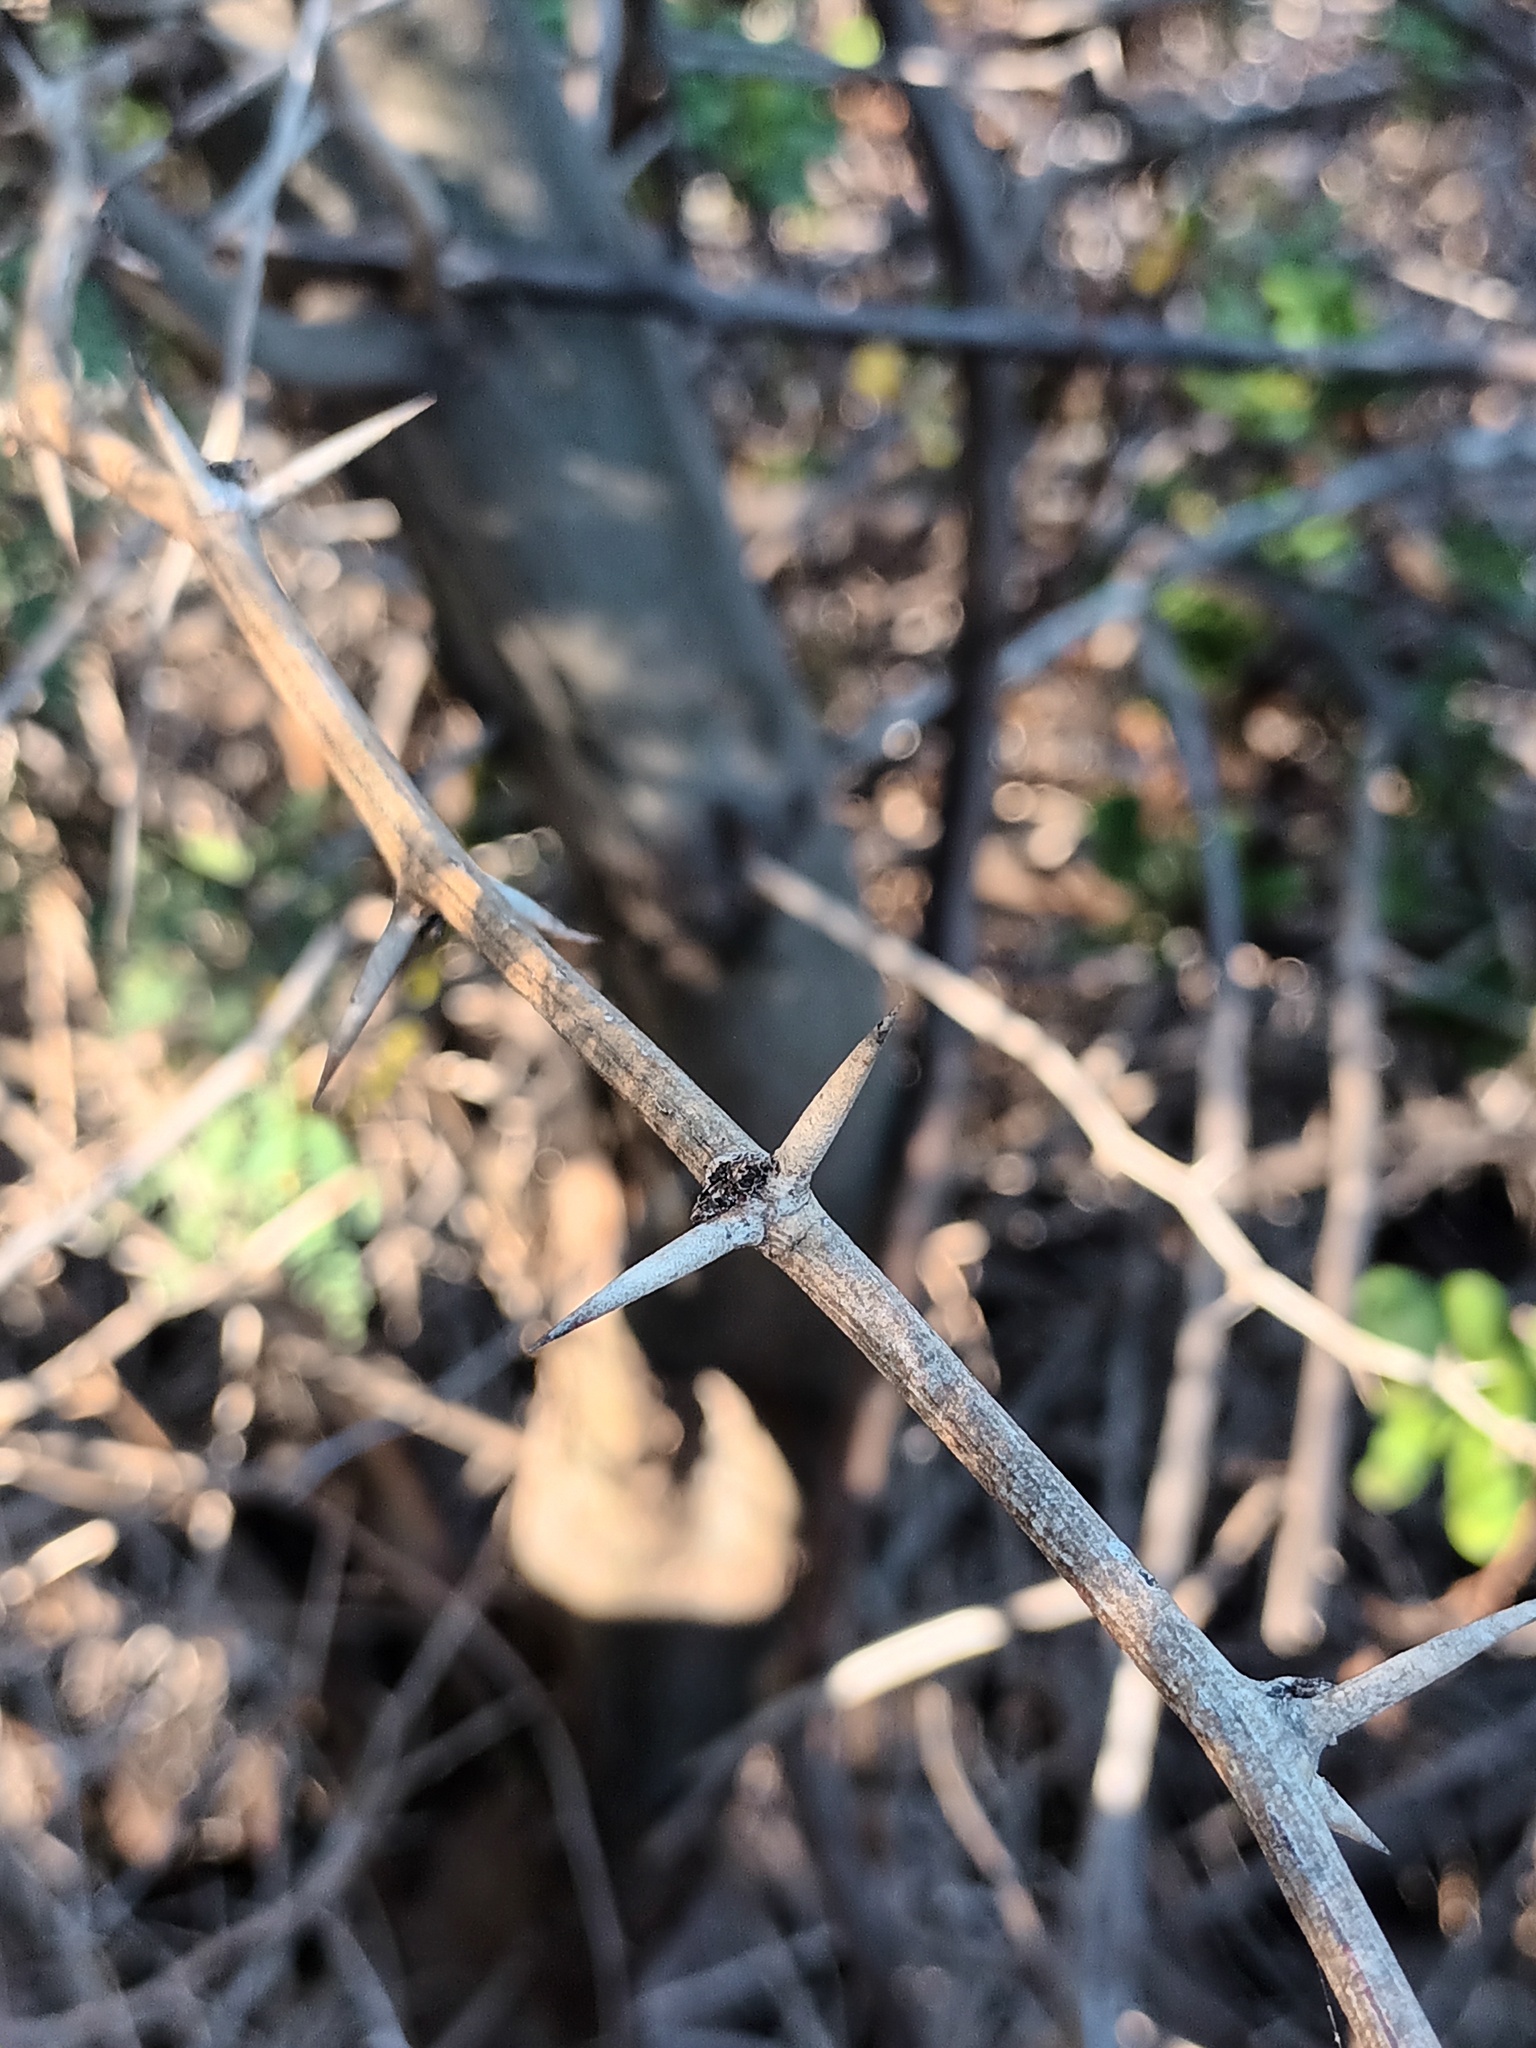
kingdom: Plantae
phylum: Tracheophyta
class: Magnoliopsida
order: Fabales
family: Fabaceae
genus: Prosopis
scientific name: Prosopis pallida
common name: Mesquite
